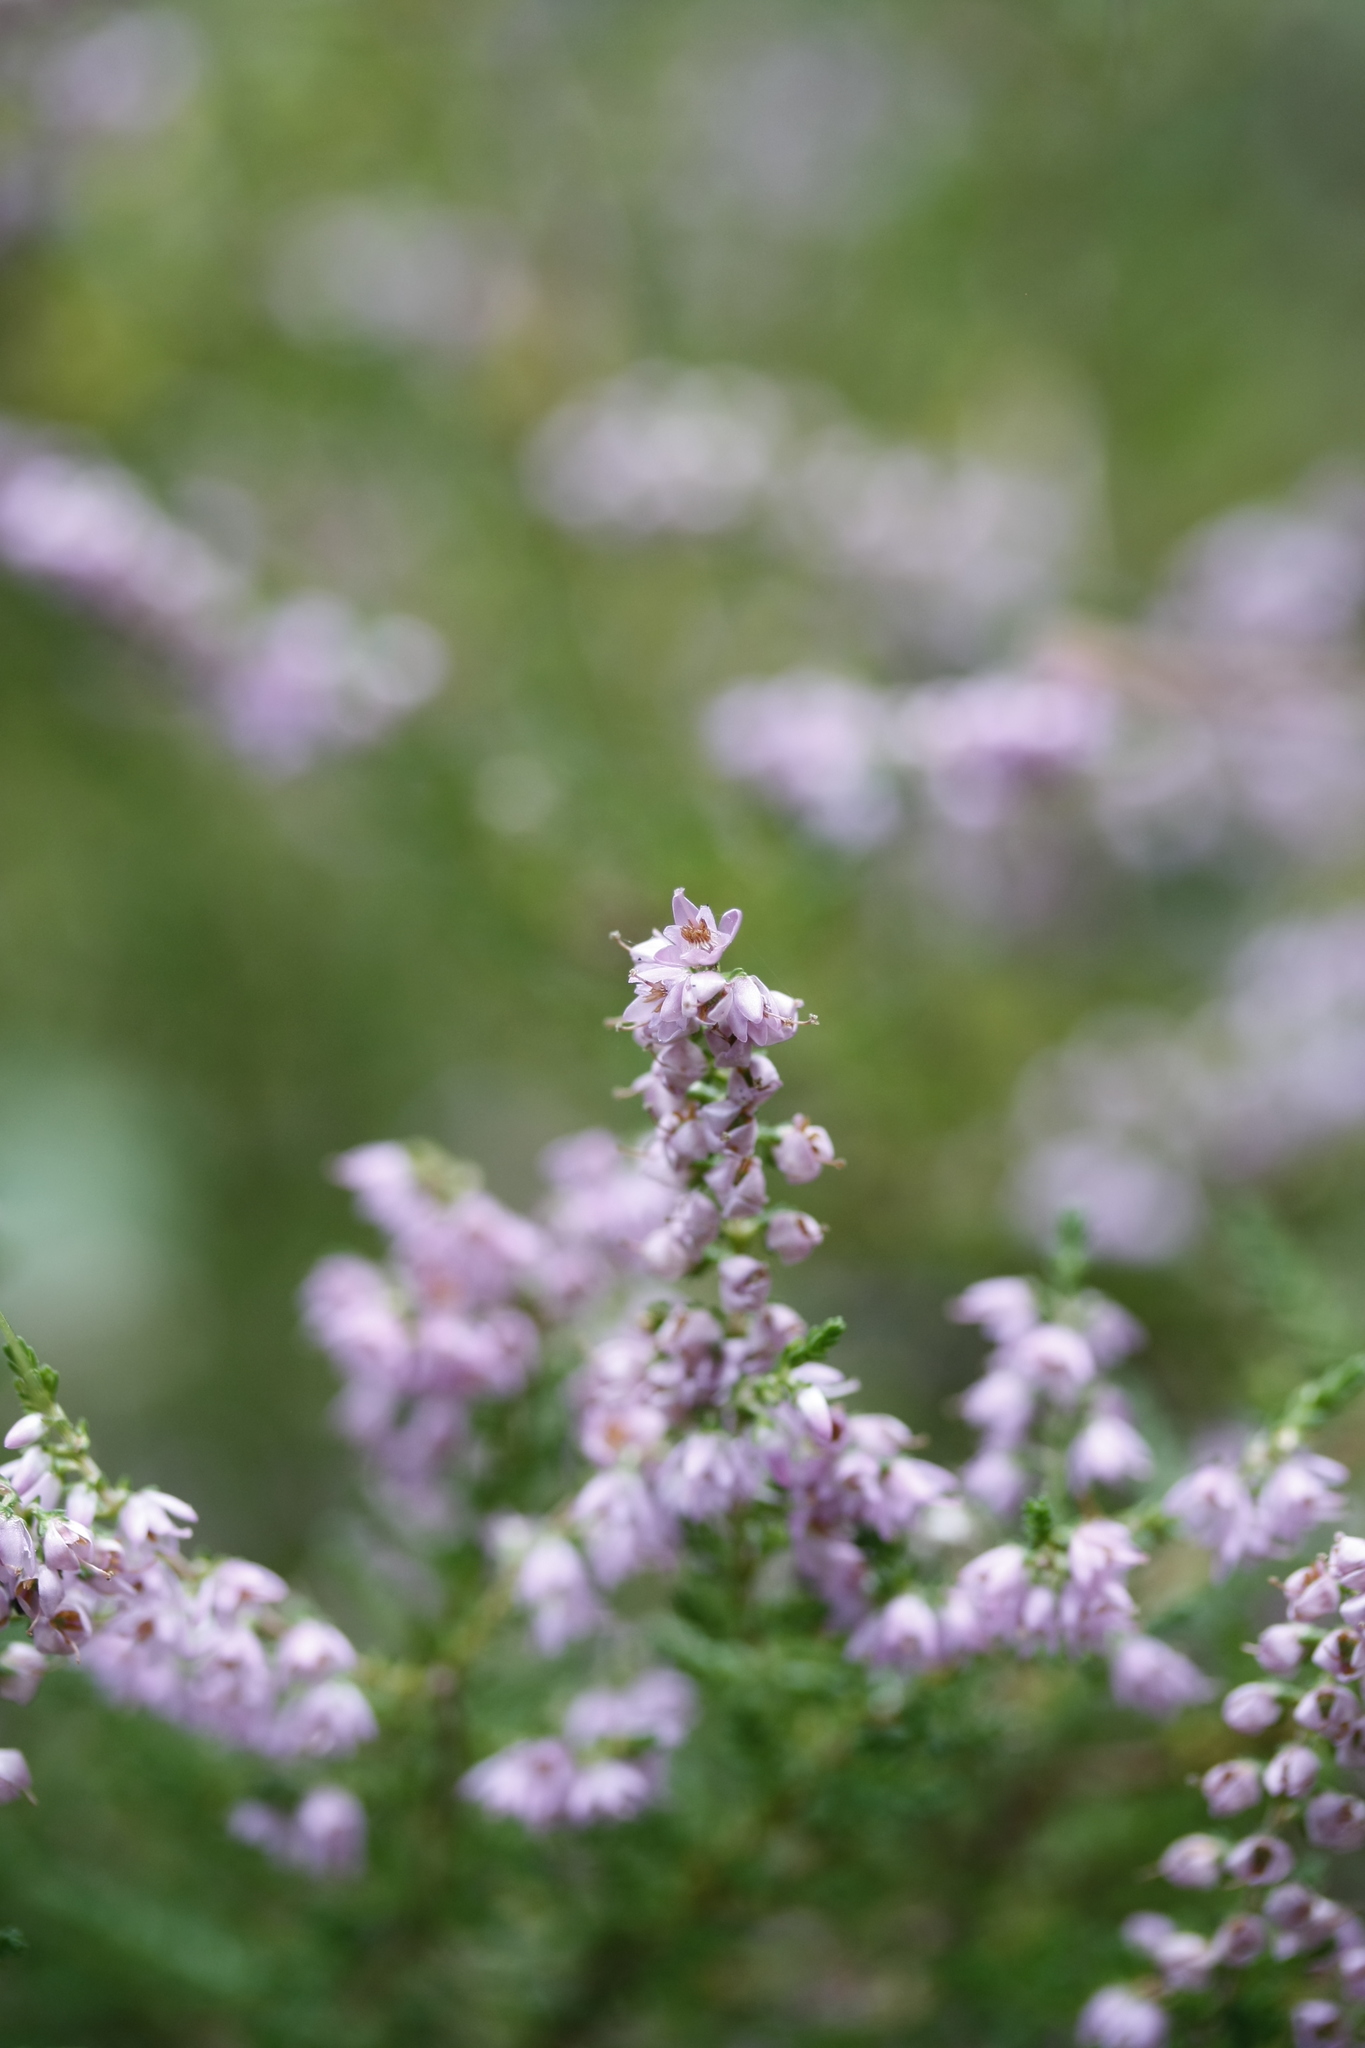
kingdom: Plantae
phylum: Tracheophyta
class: Magnoliopsida
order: Ericales
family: Ericaceae
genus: Calluna
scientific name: Calluna vulgaris
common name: Heather
